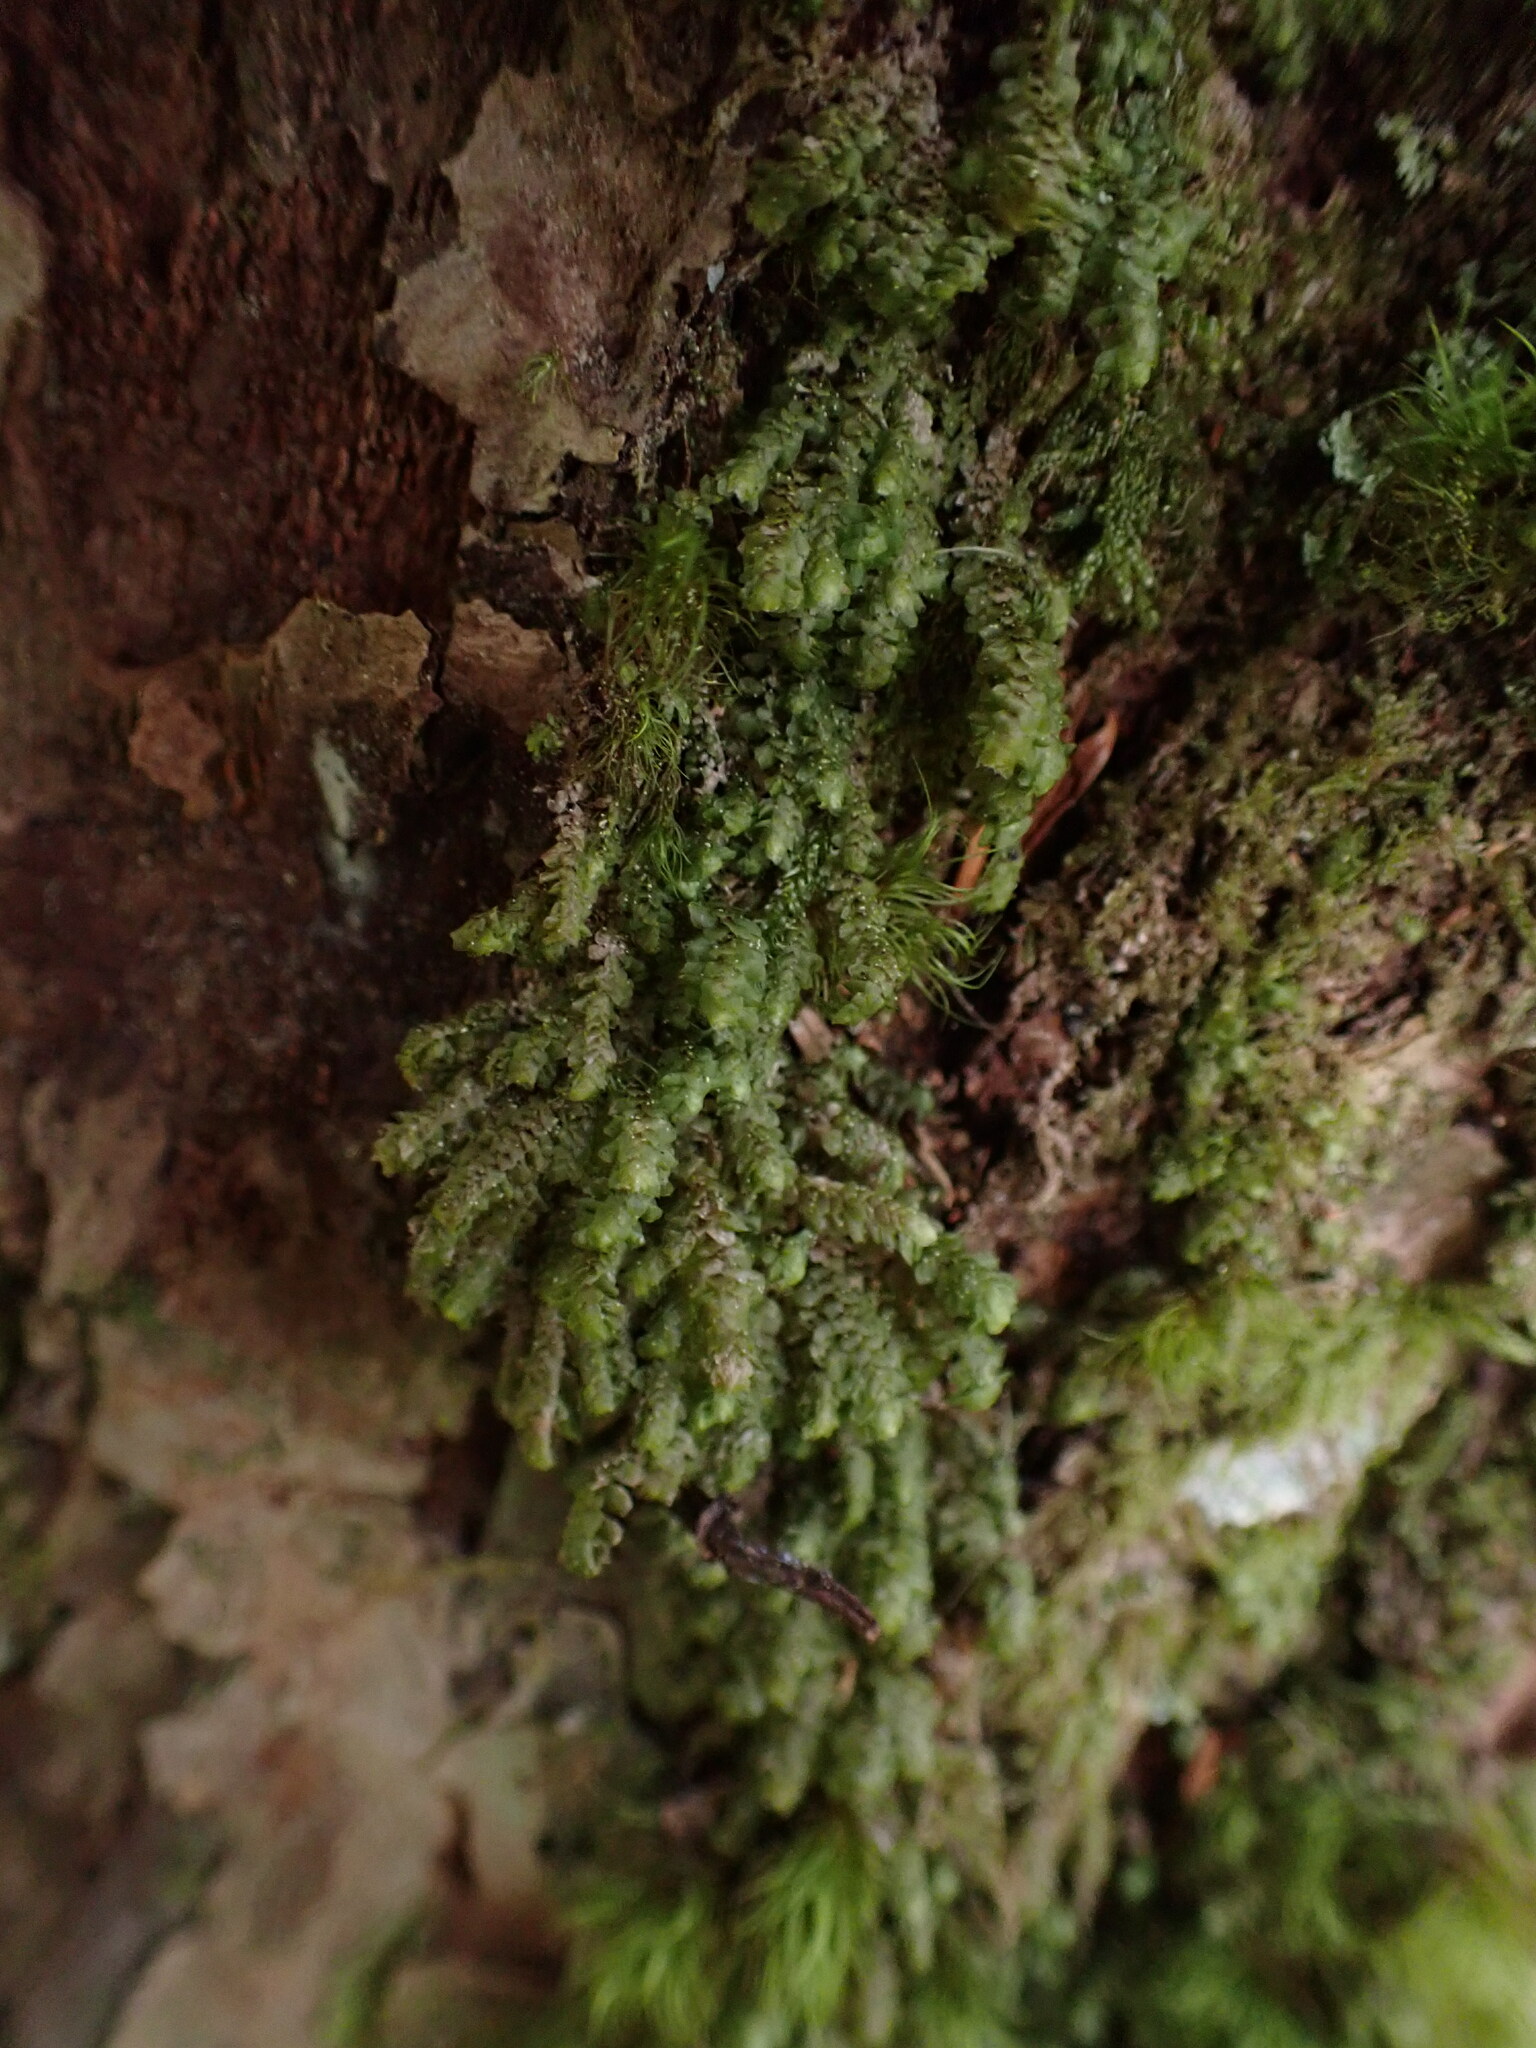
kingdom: Plantae
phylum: Marchantiophyta
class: Jungermanniopsida
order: Jungermanniales
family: Scapaniaceae
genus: Scapania
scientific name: Scapania bolanderi
